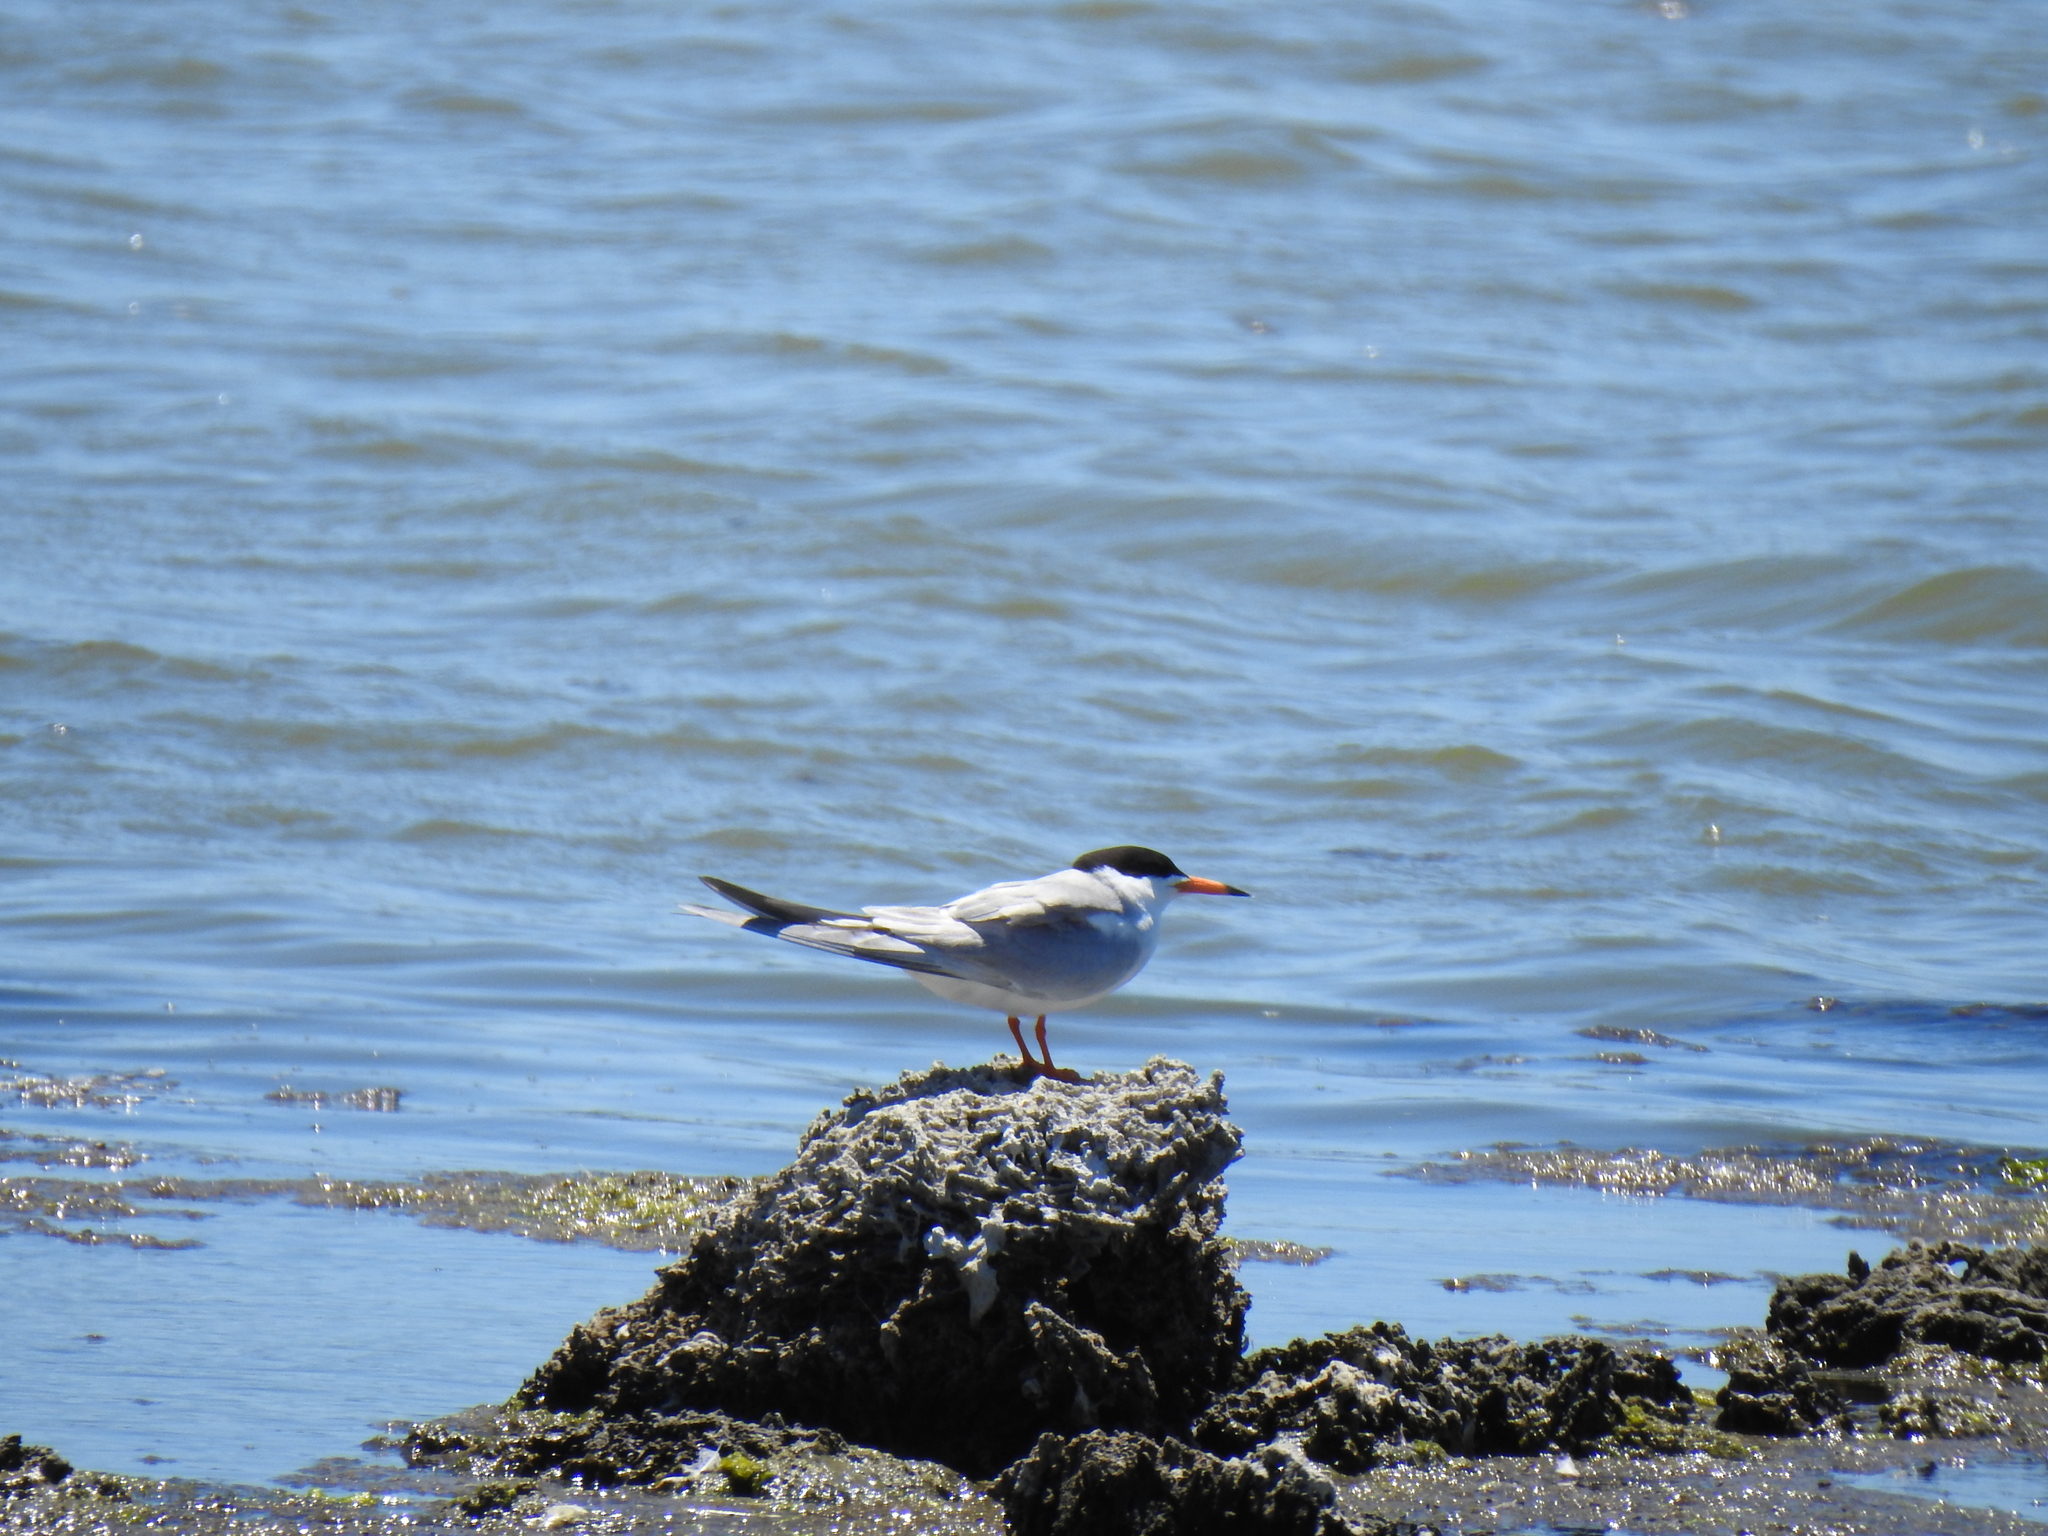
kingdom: Animalia
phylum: Chordata
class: Aves
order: Charadriiformes
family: Laridae
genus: Sterna
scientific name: Sterna forsteri
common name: Forster's tern
